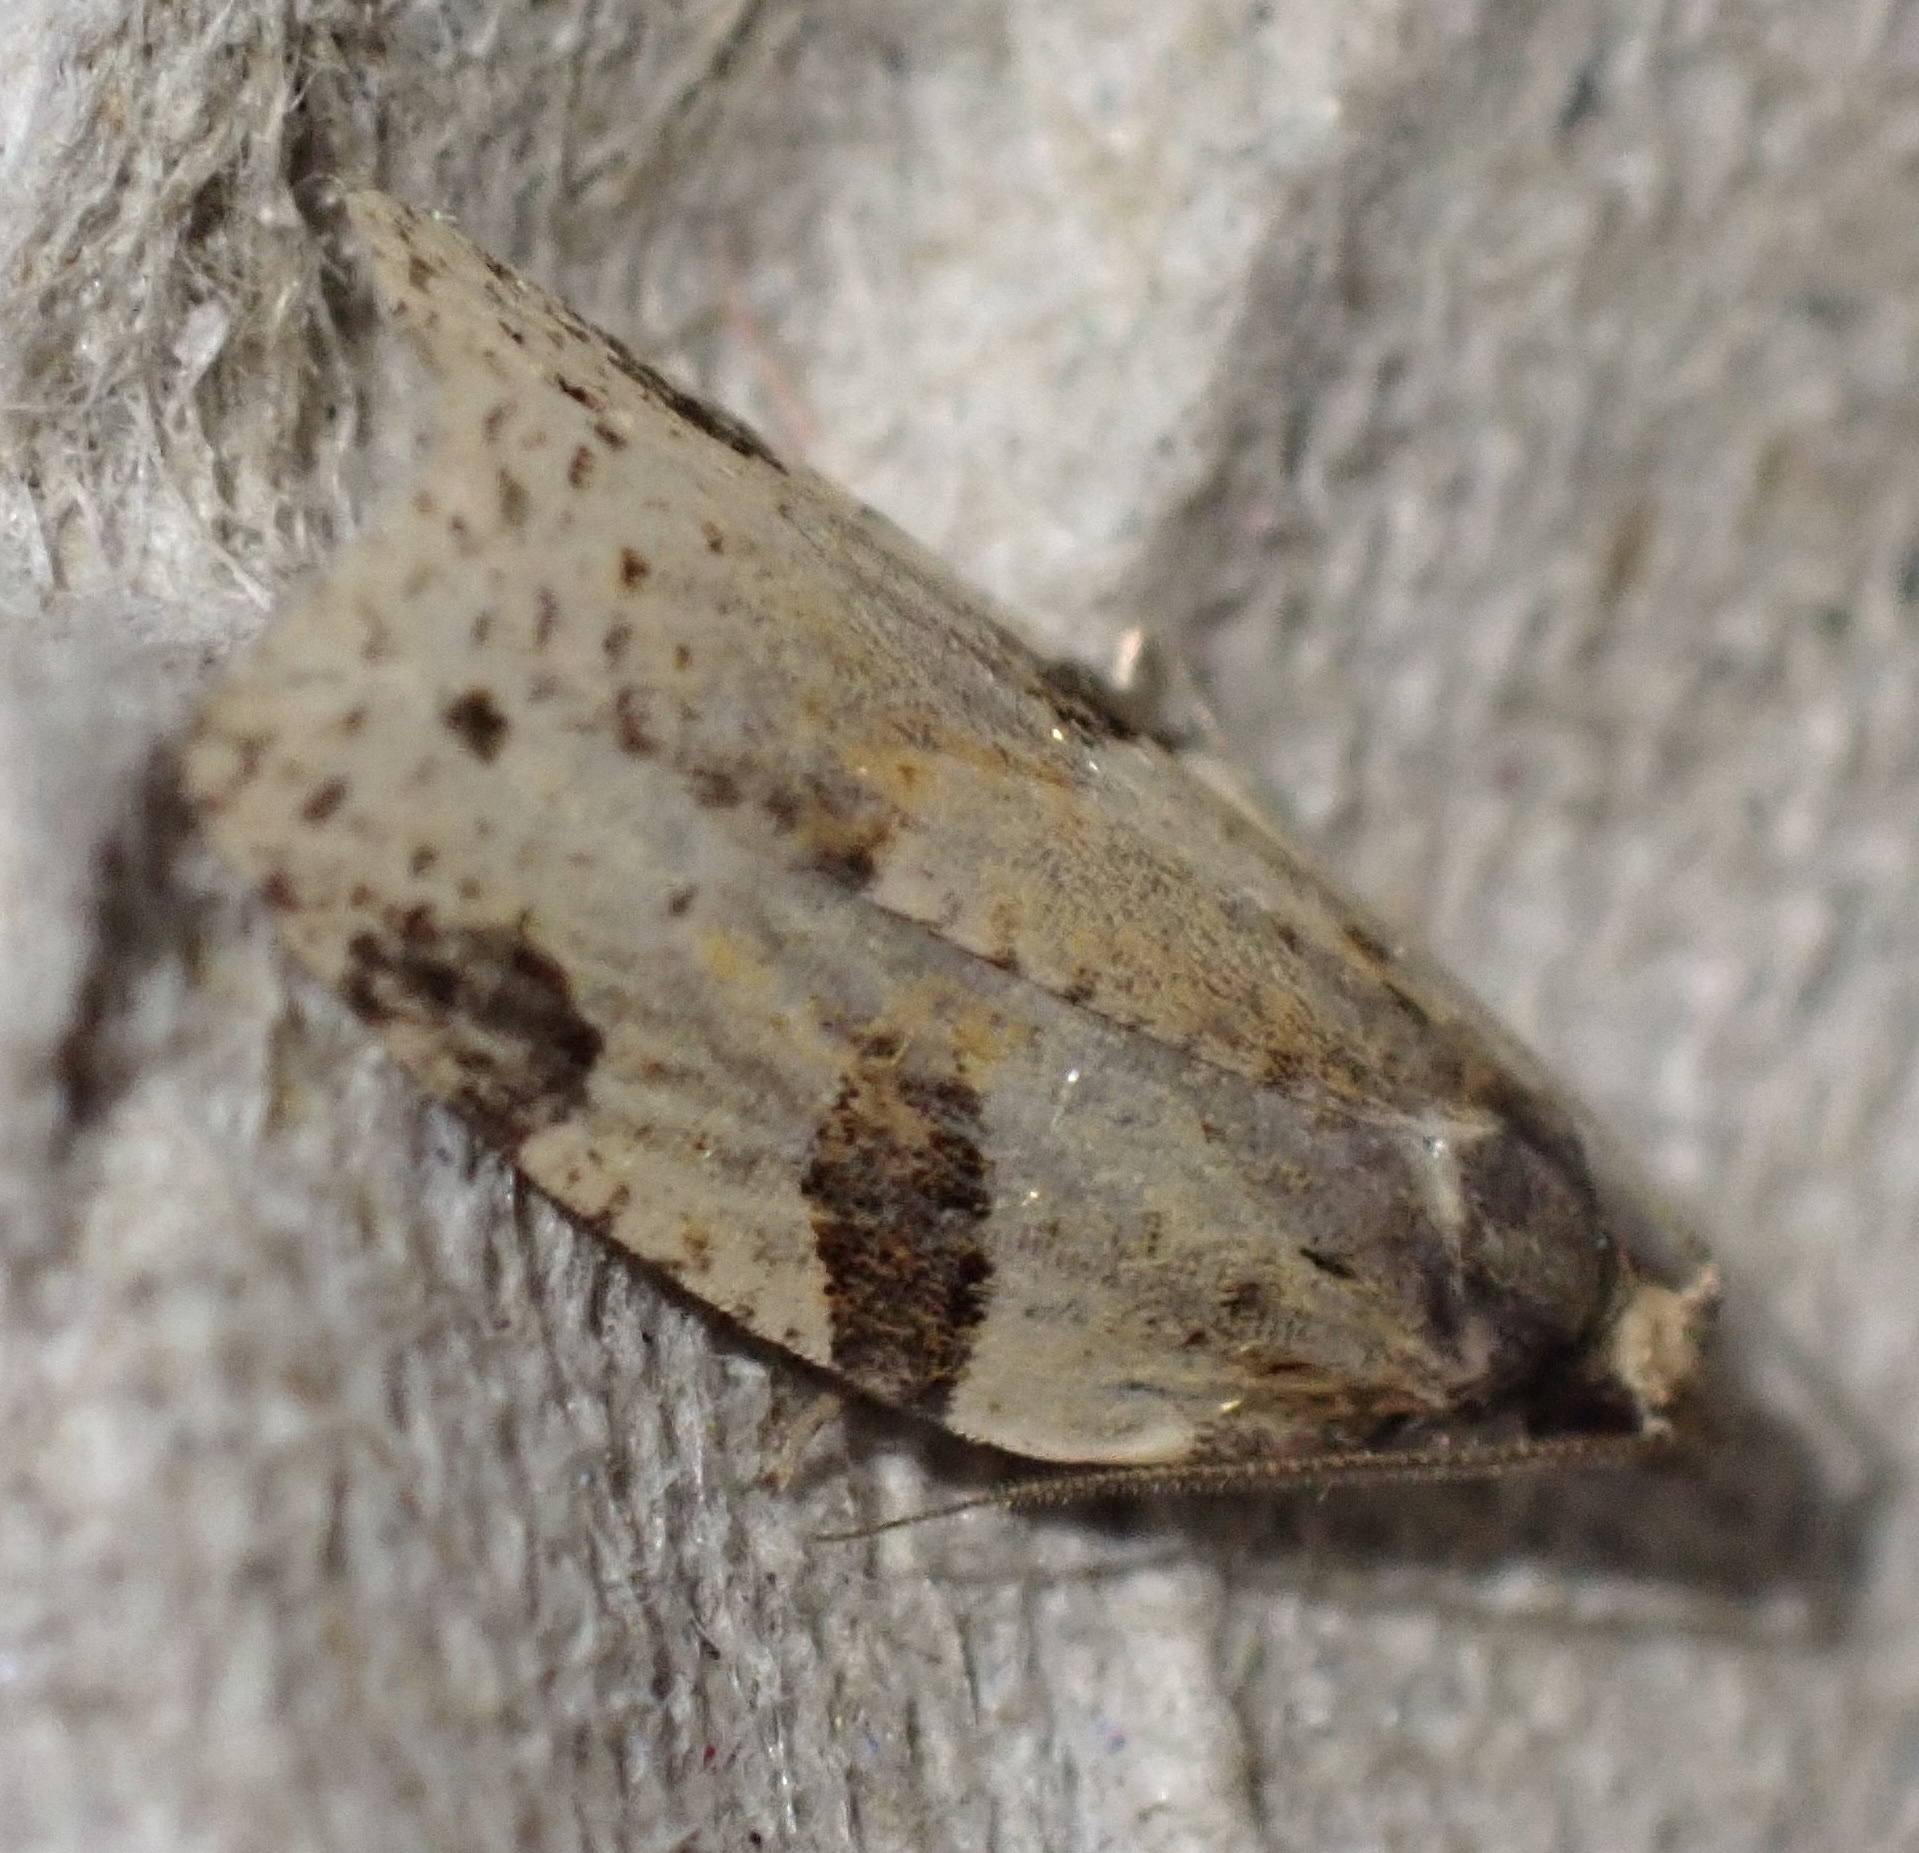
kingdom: Animalia
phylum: Arthropoda
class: Insecta
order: Lepidoptera
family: Tortricidae
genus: Clepsis
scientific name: Clepsis spectrana
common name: Cyclamen tortrix
